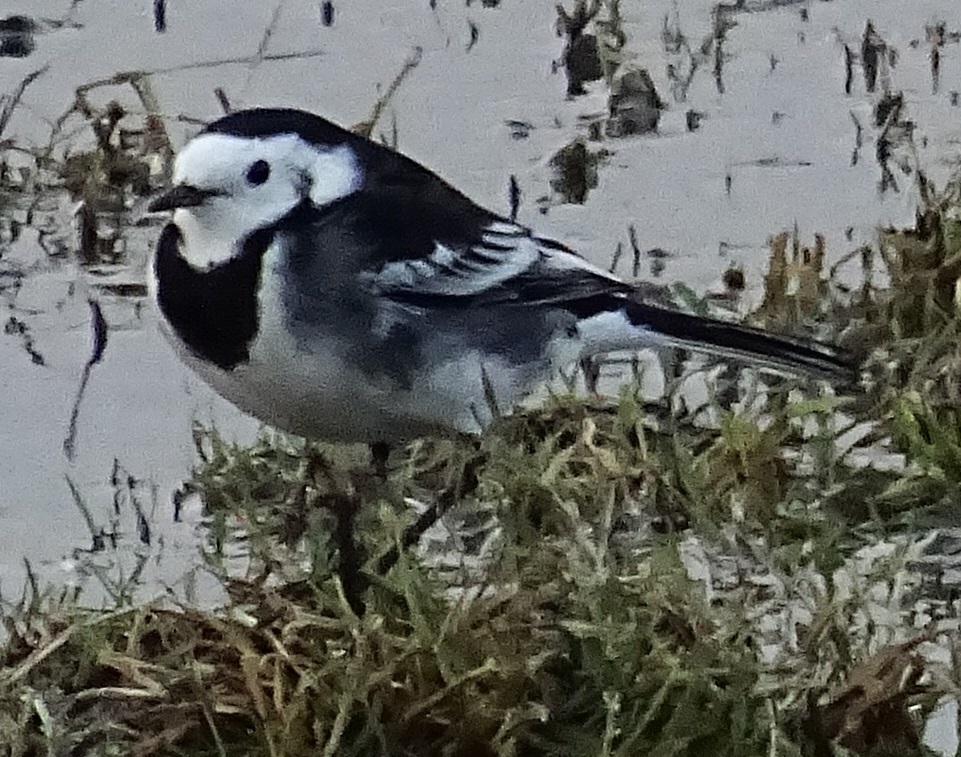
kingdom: Animalia
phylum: Chordata
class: Aves
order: Passeriformes
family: Motacillidae
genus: Motacilla
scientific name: Motacilla alba
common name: White wagtail
